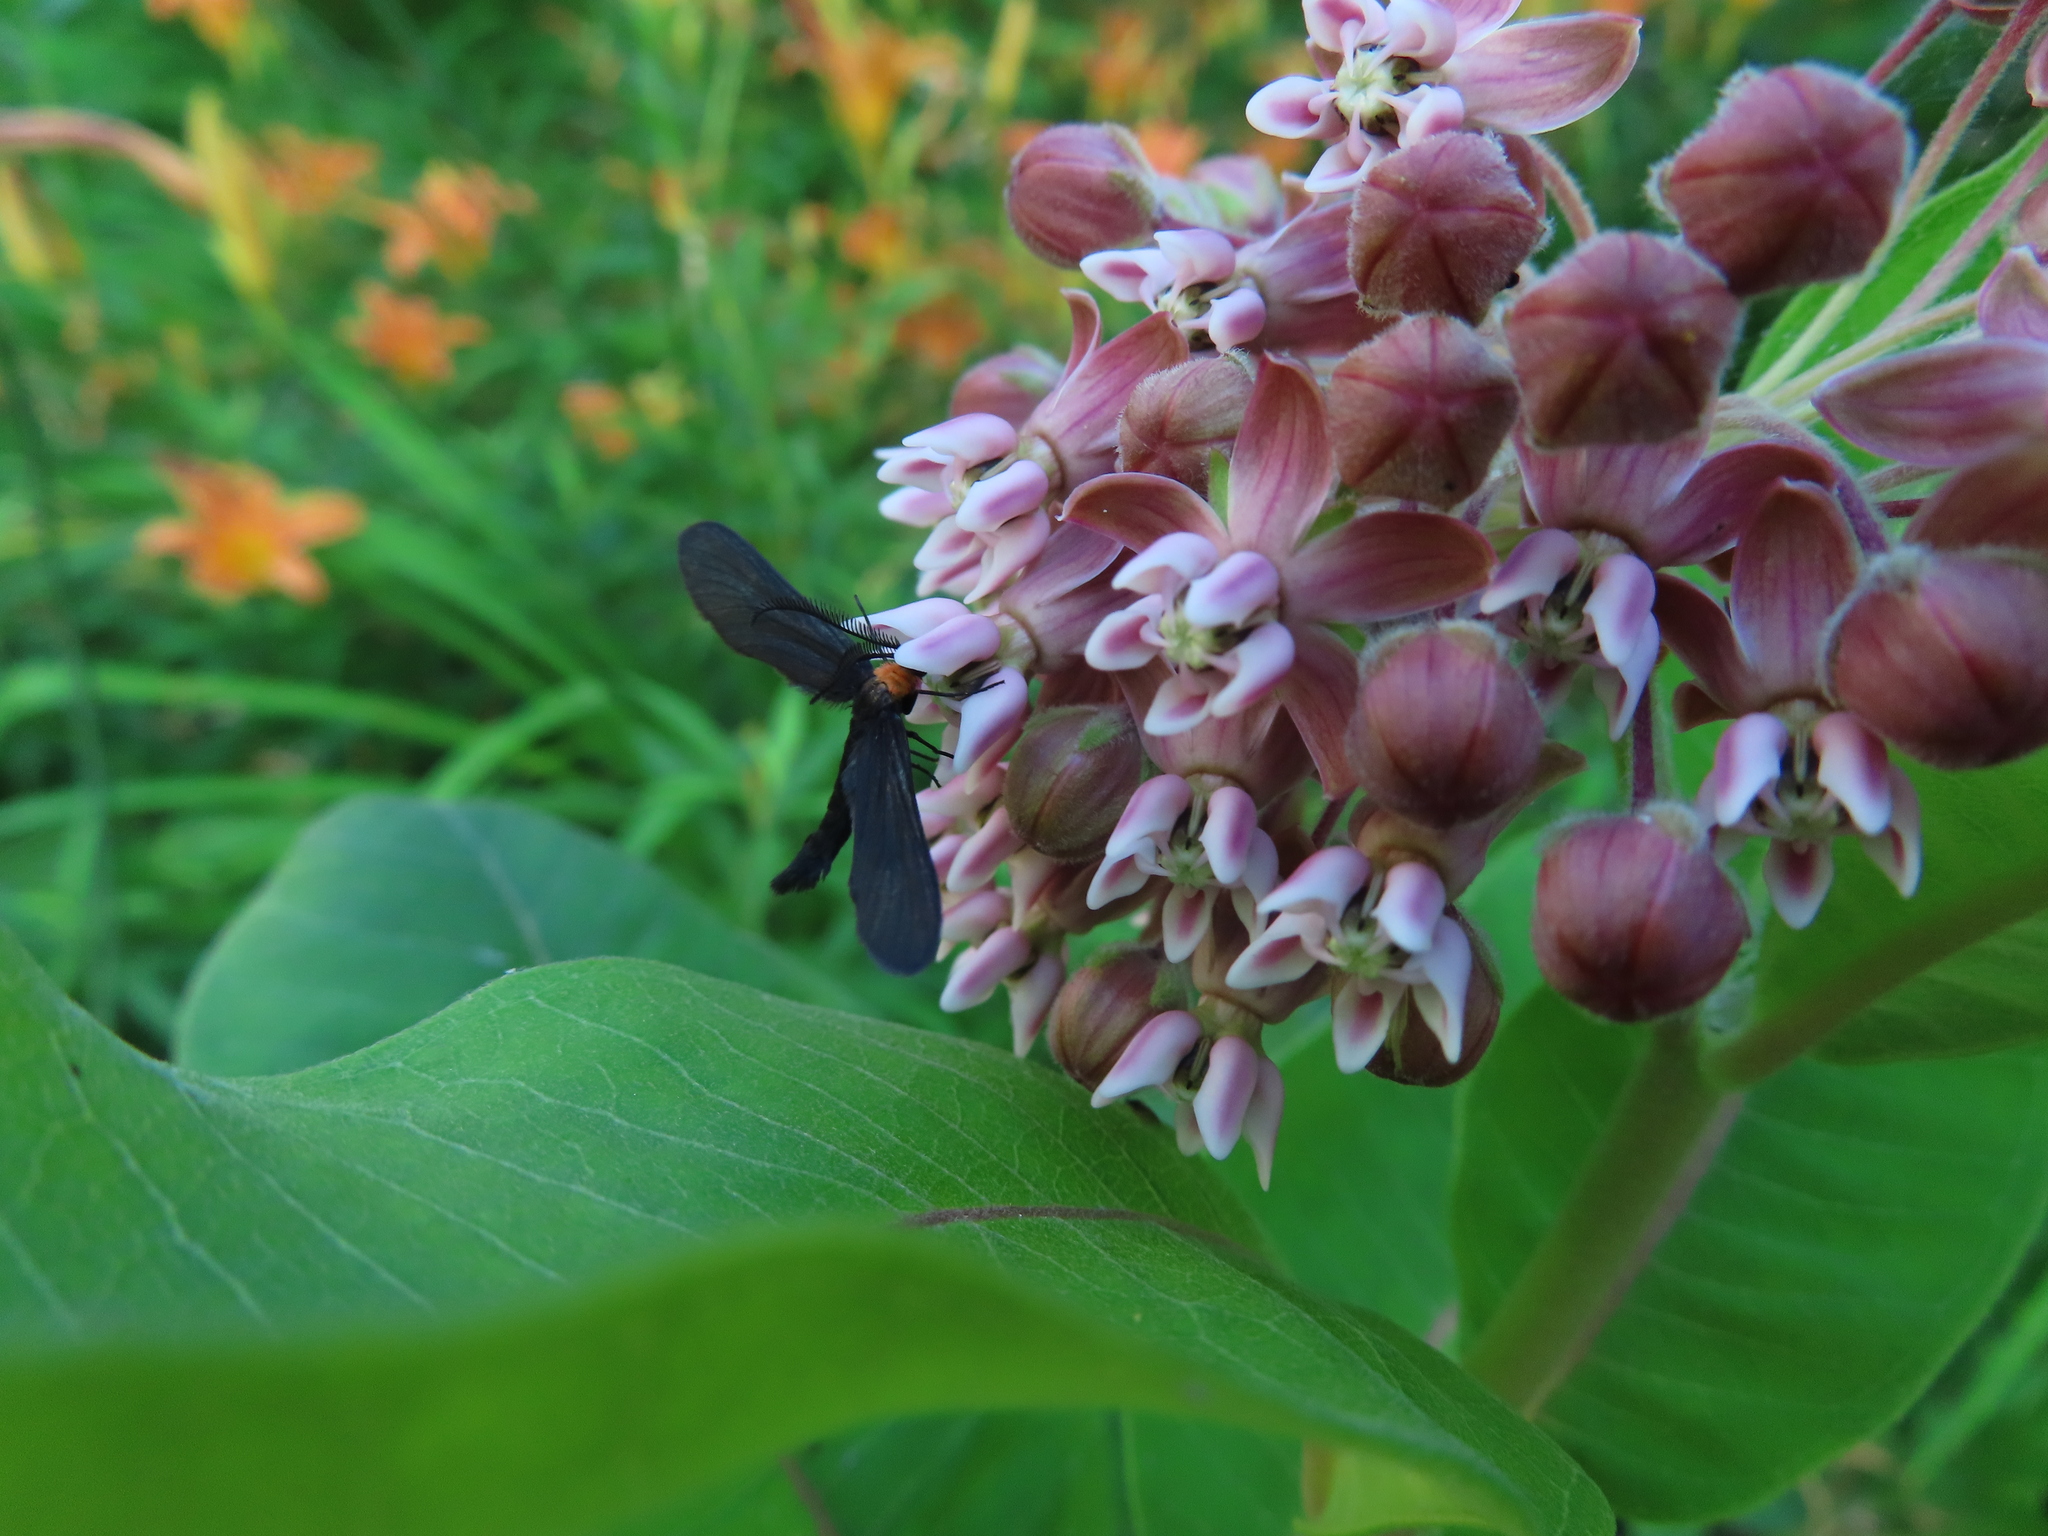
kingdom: Animalia
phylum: Arthropoda
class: Insecta
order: Lepidoptera
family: Zygaenidae
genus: Harrisina
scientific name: Harrisina americana
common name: Grapeleaf skeletonizer moth
